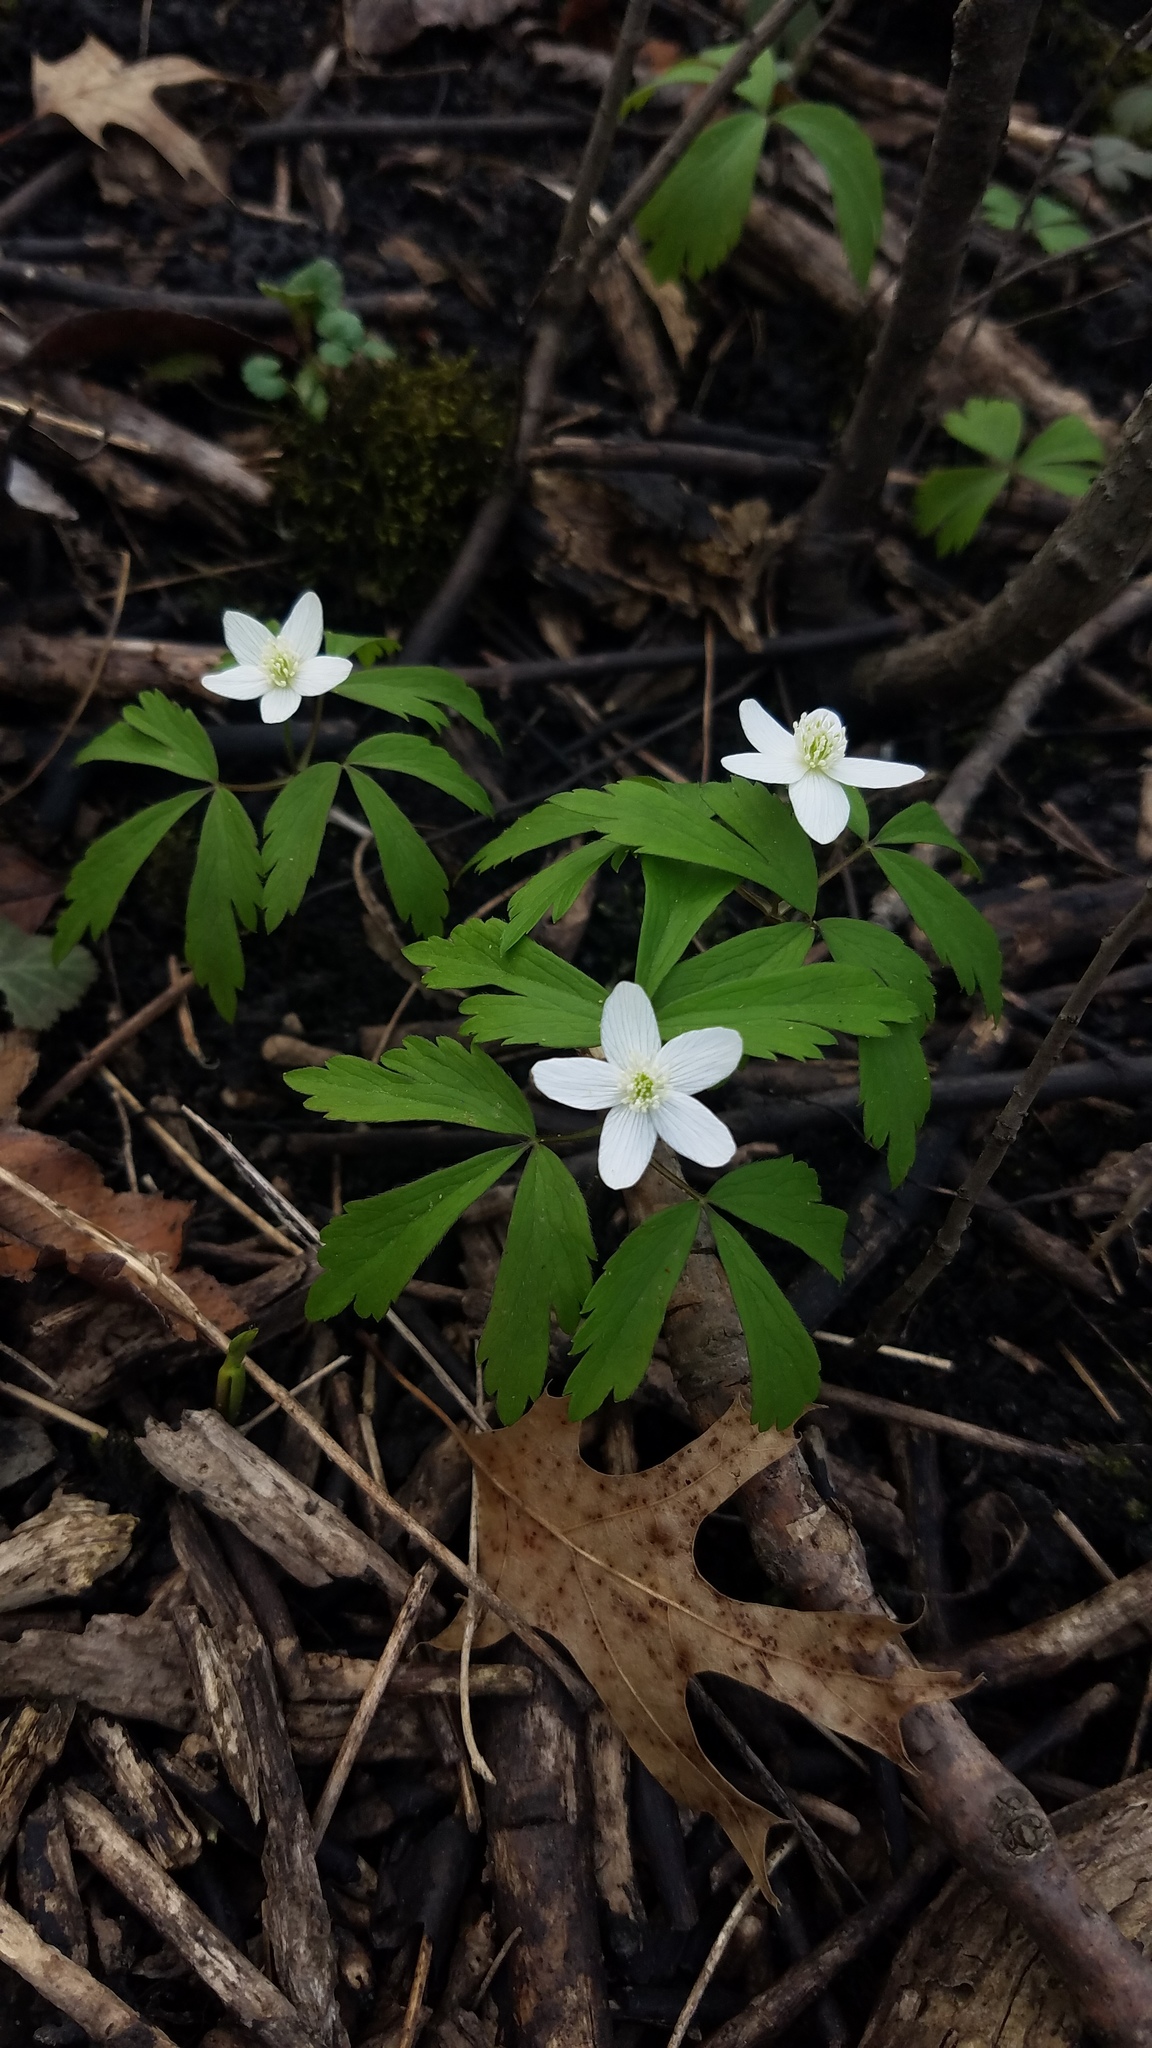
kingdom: Plantae
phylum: Tracheophyta
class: Magnoliopsida
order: Ranunculales
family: Ranunculaceae
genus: Anemone
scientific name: Anemone quinquefolia
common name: Wood anemone
